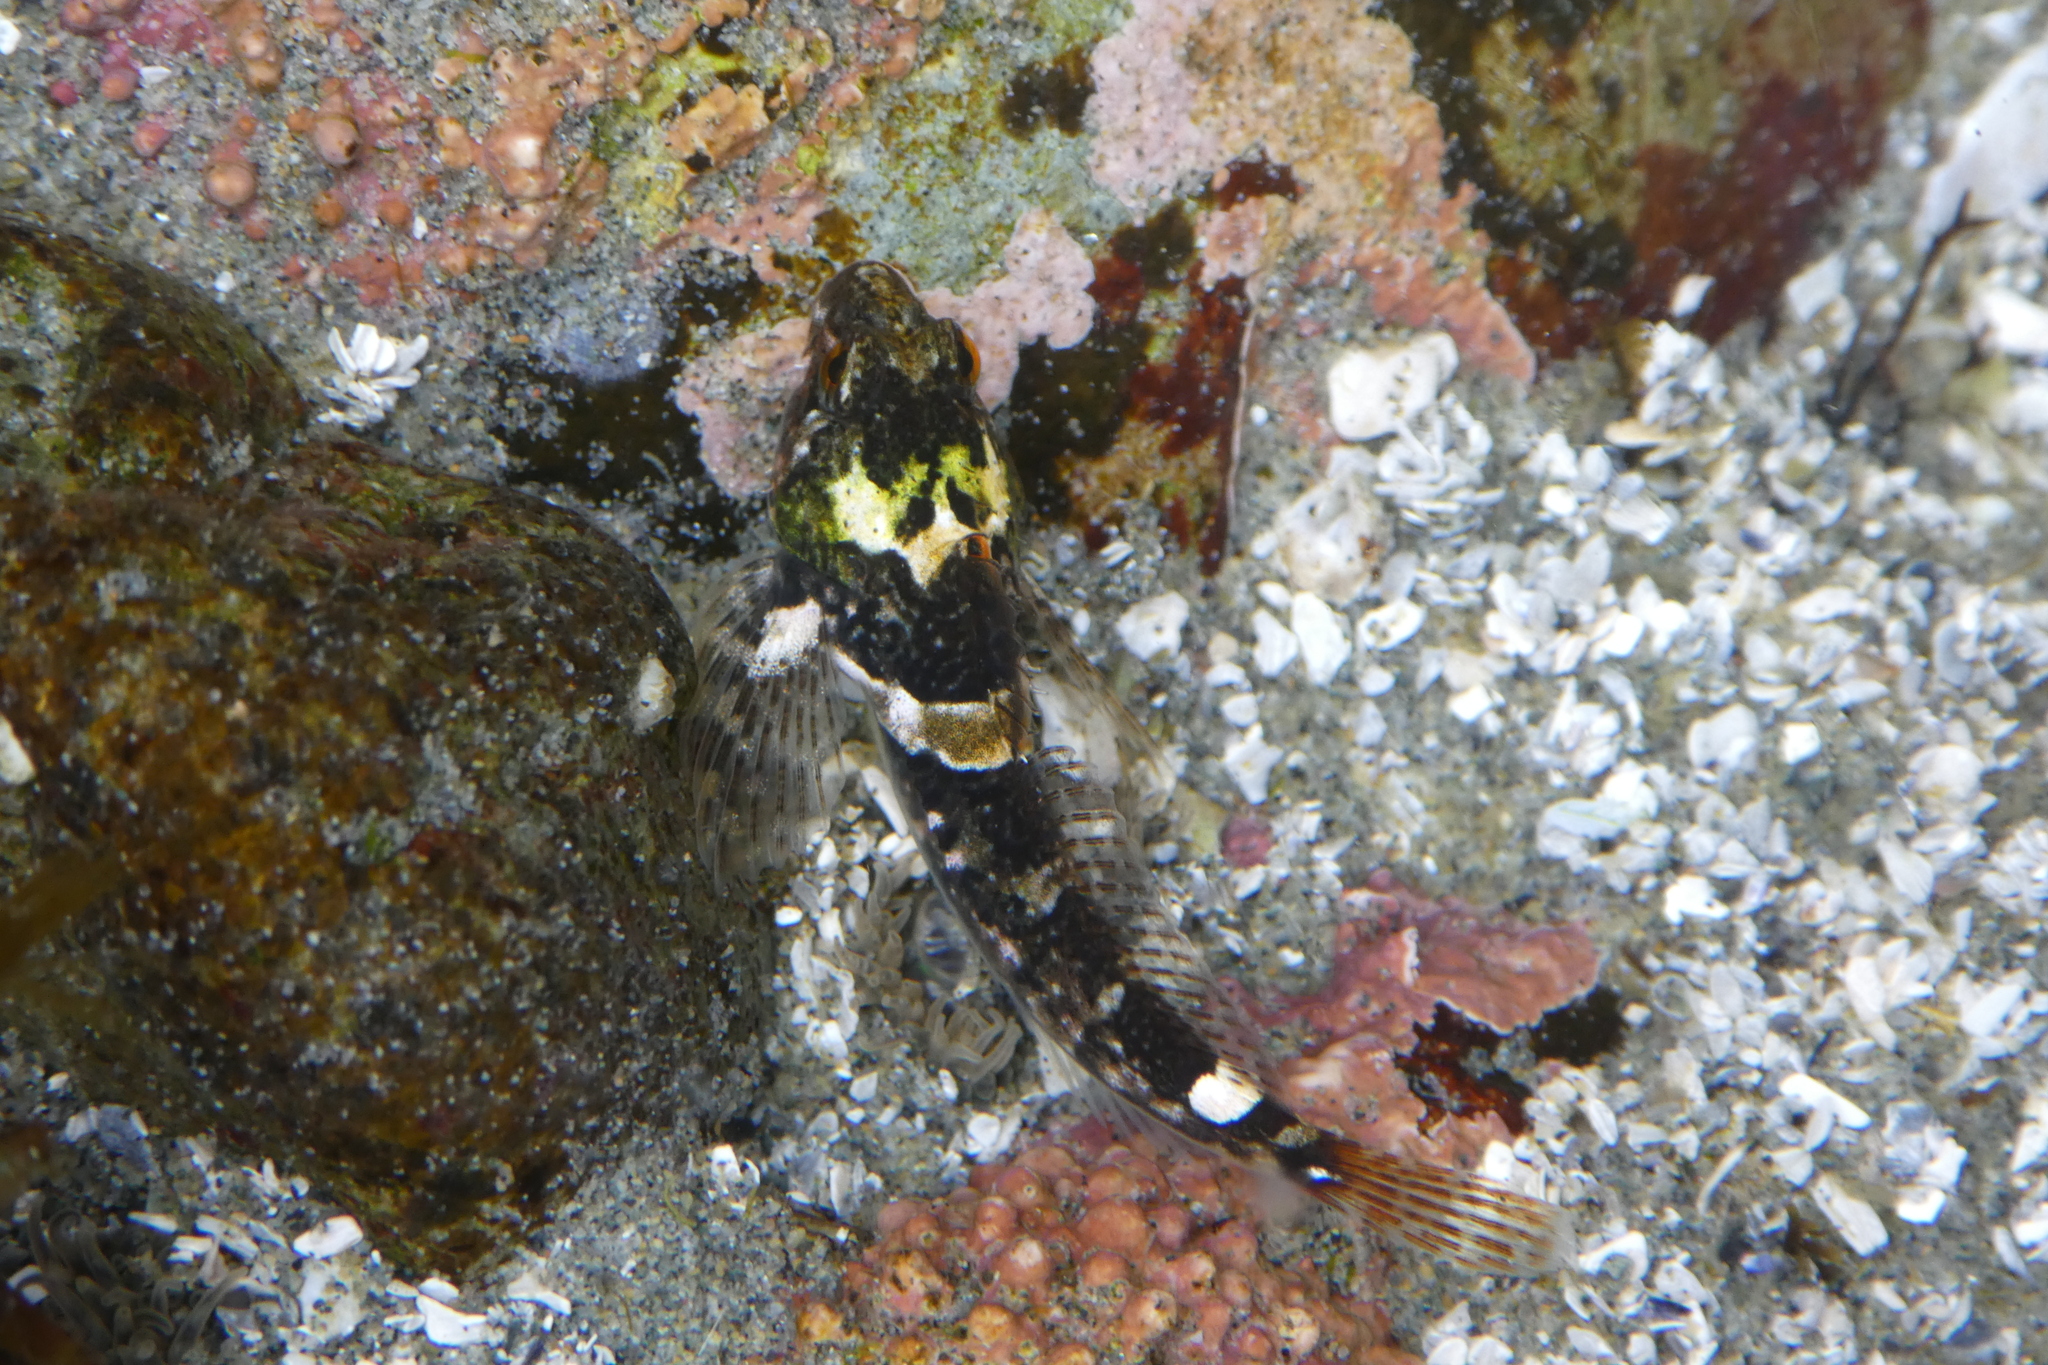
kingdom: Animalia
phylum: Chordata
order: Scorpaeniformes
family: Cottidae
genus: Oligocottus
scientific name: Oligocottus maculosus
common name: Tidepool sculpin
